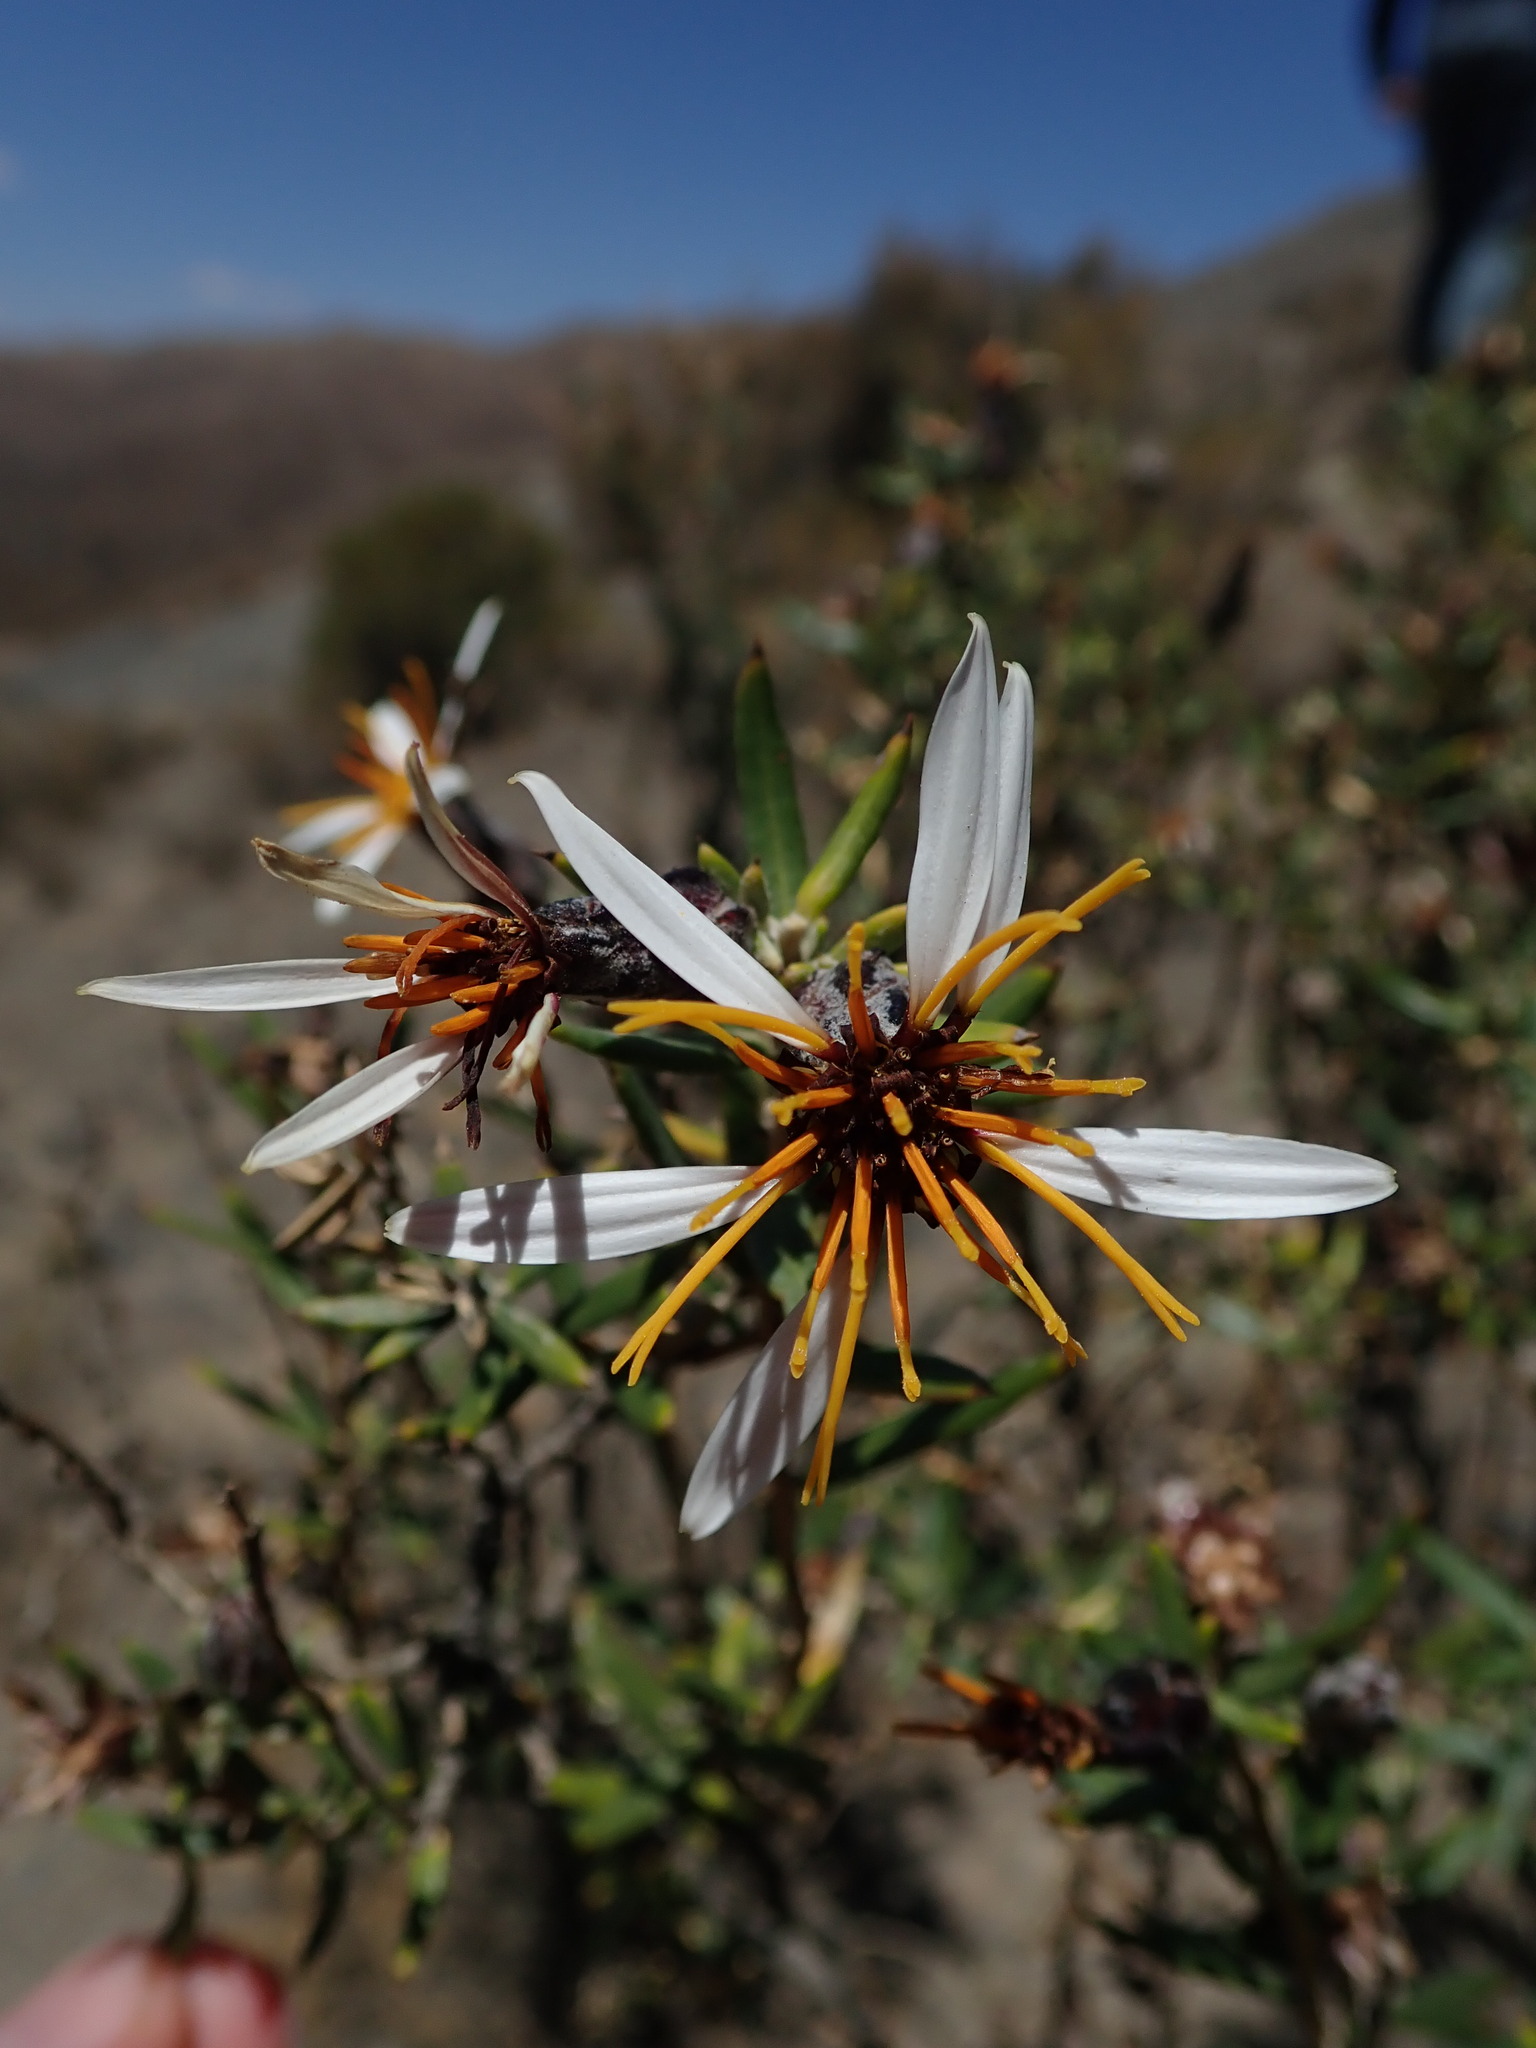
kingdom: Plantae
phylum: Tracheophyta
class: Magnoliopsida
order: Asterales
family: Asteraceae
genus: Mutisia
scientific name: Mutisia ledifolia
